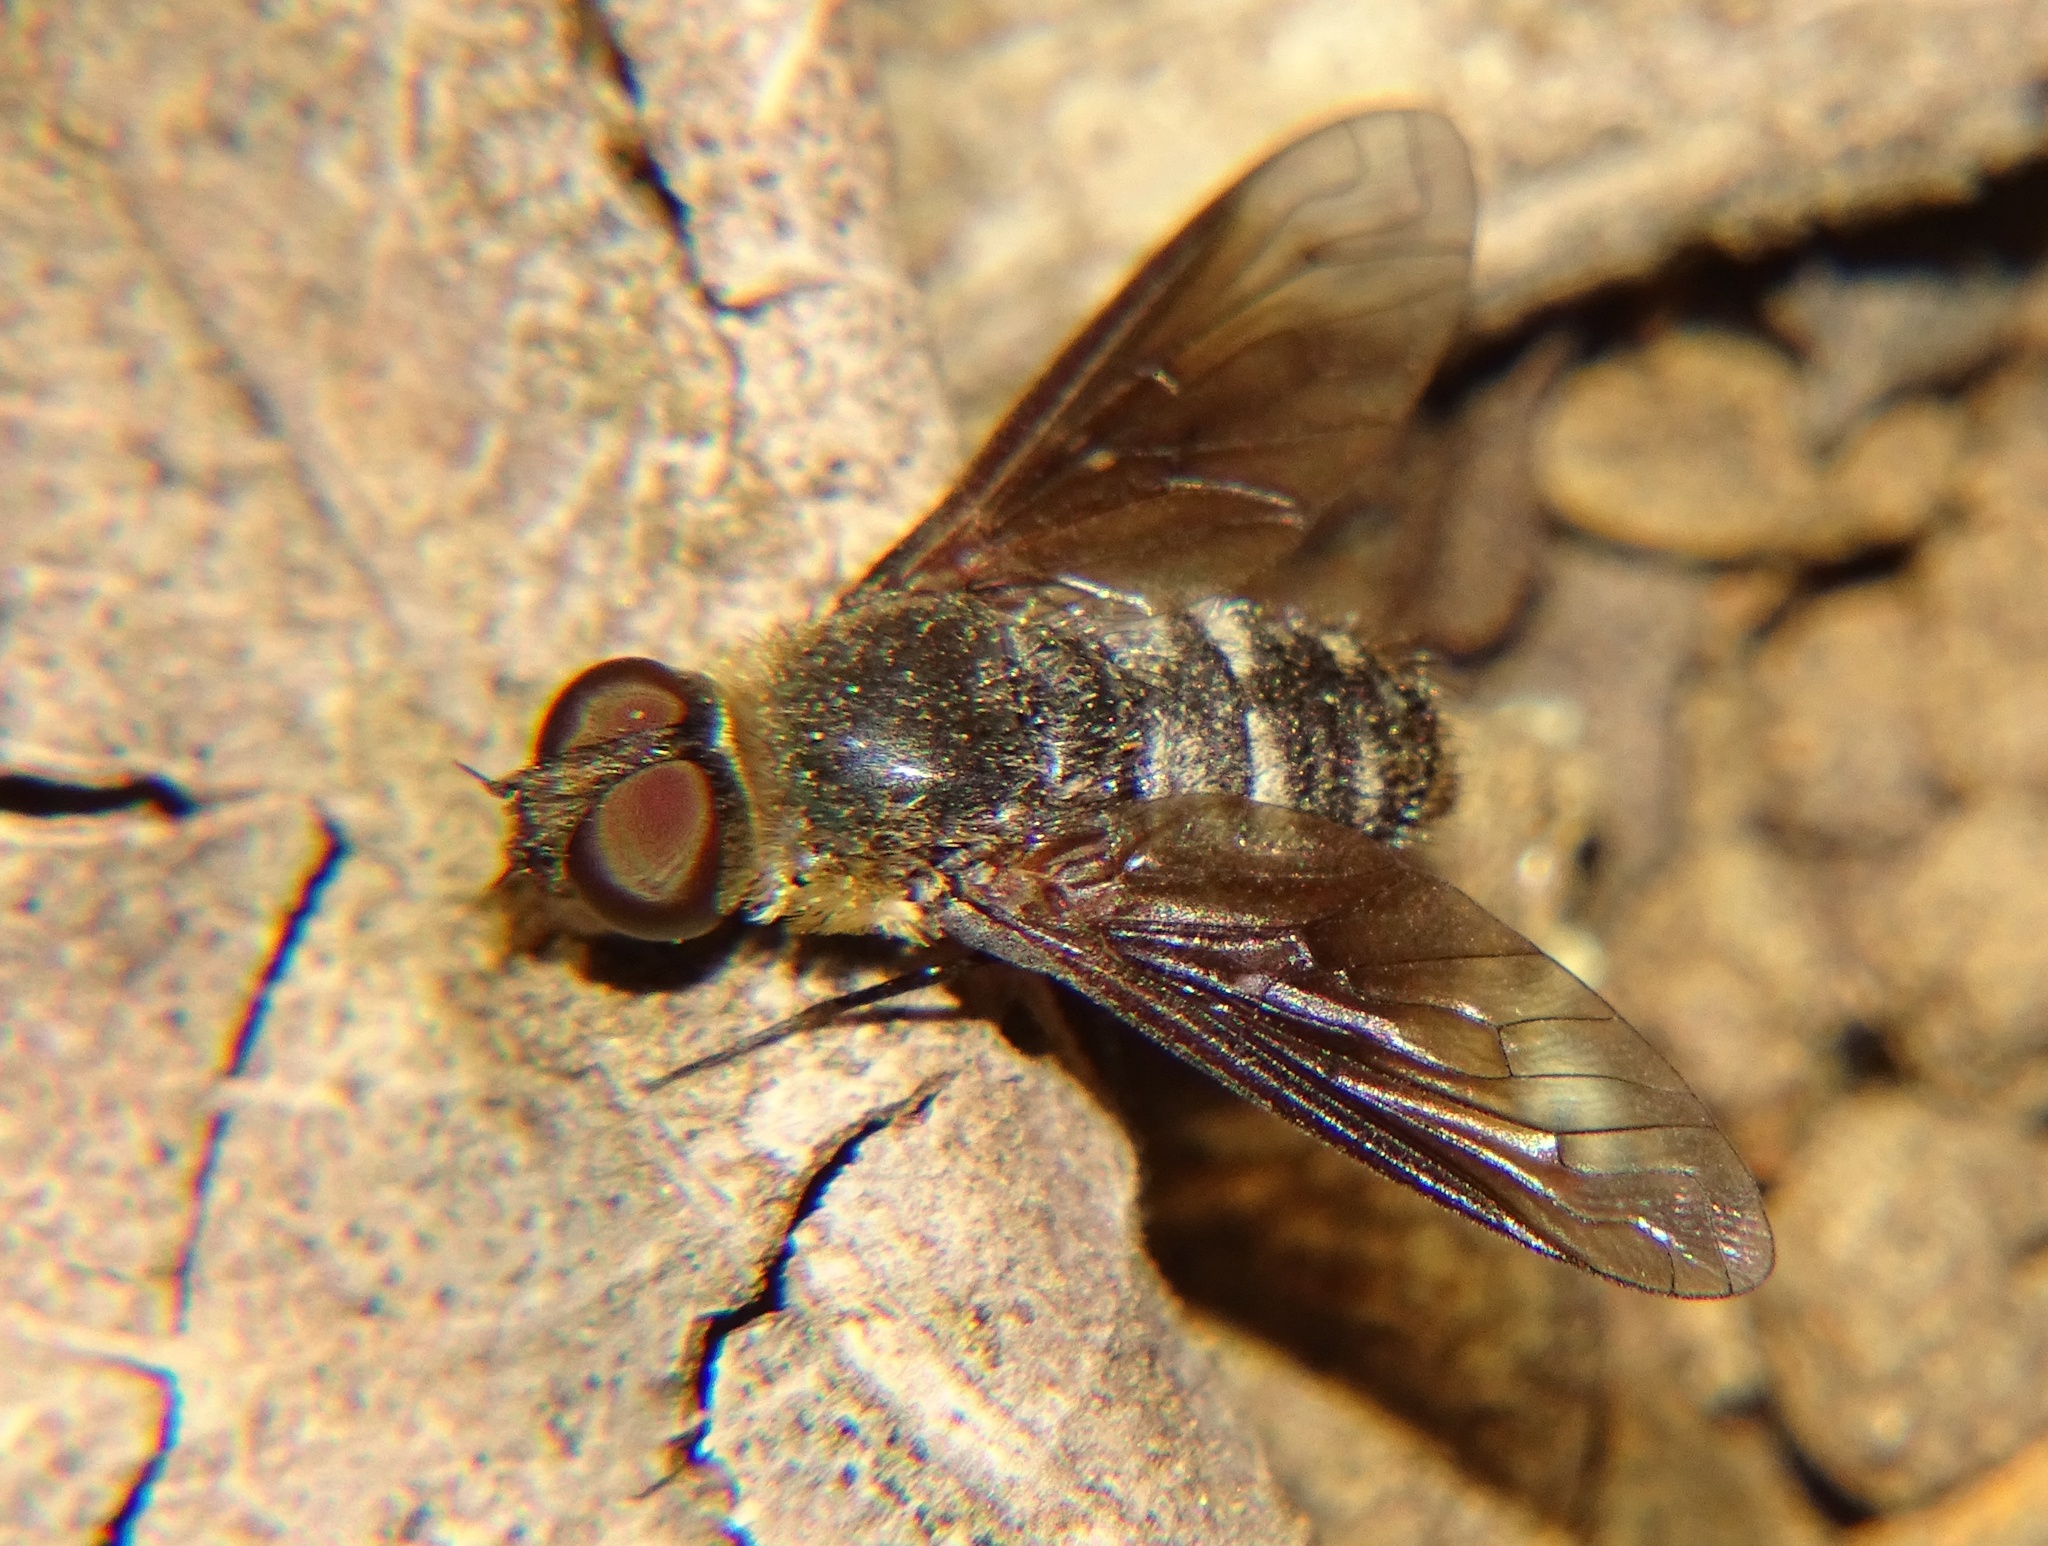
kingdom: Animalia
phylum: Arthropoda
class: Insecta
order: Diptera
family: Bombyliidae
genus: Chrysanthrax
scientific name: Chrysanthrax vanus
